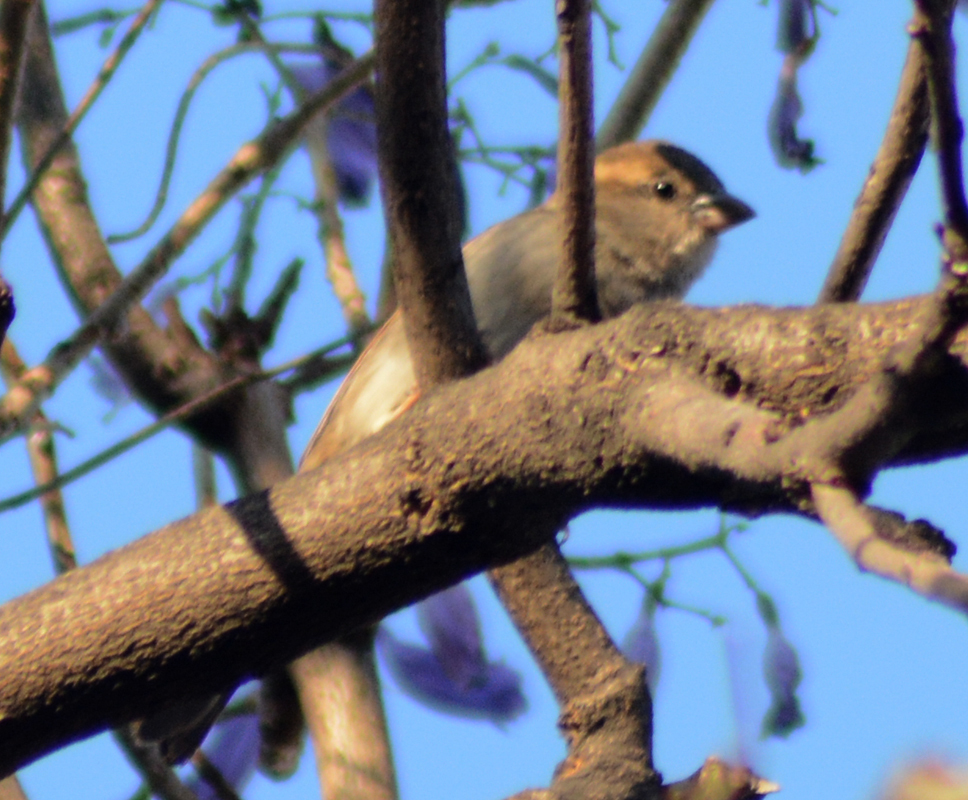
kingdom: Animalia
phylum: Chordata
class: Aves
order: Passeriformes
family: Passeridae
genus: Passer
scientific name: Passer domesticus
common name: House sparrow
